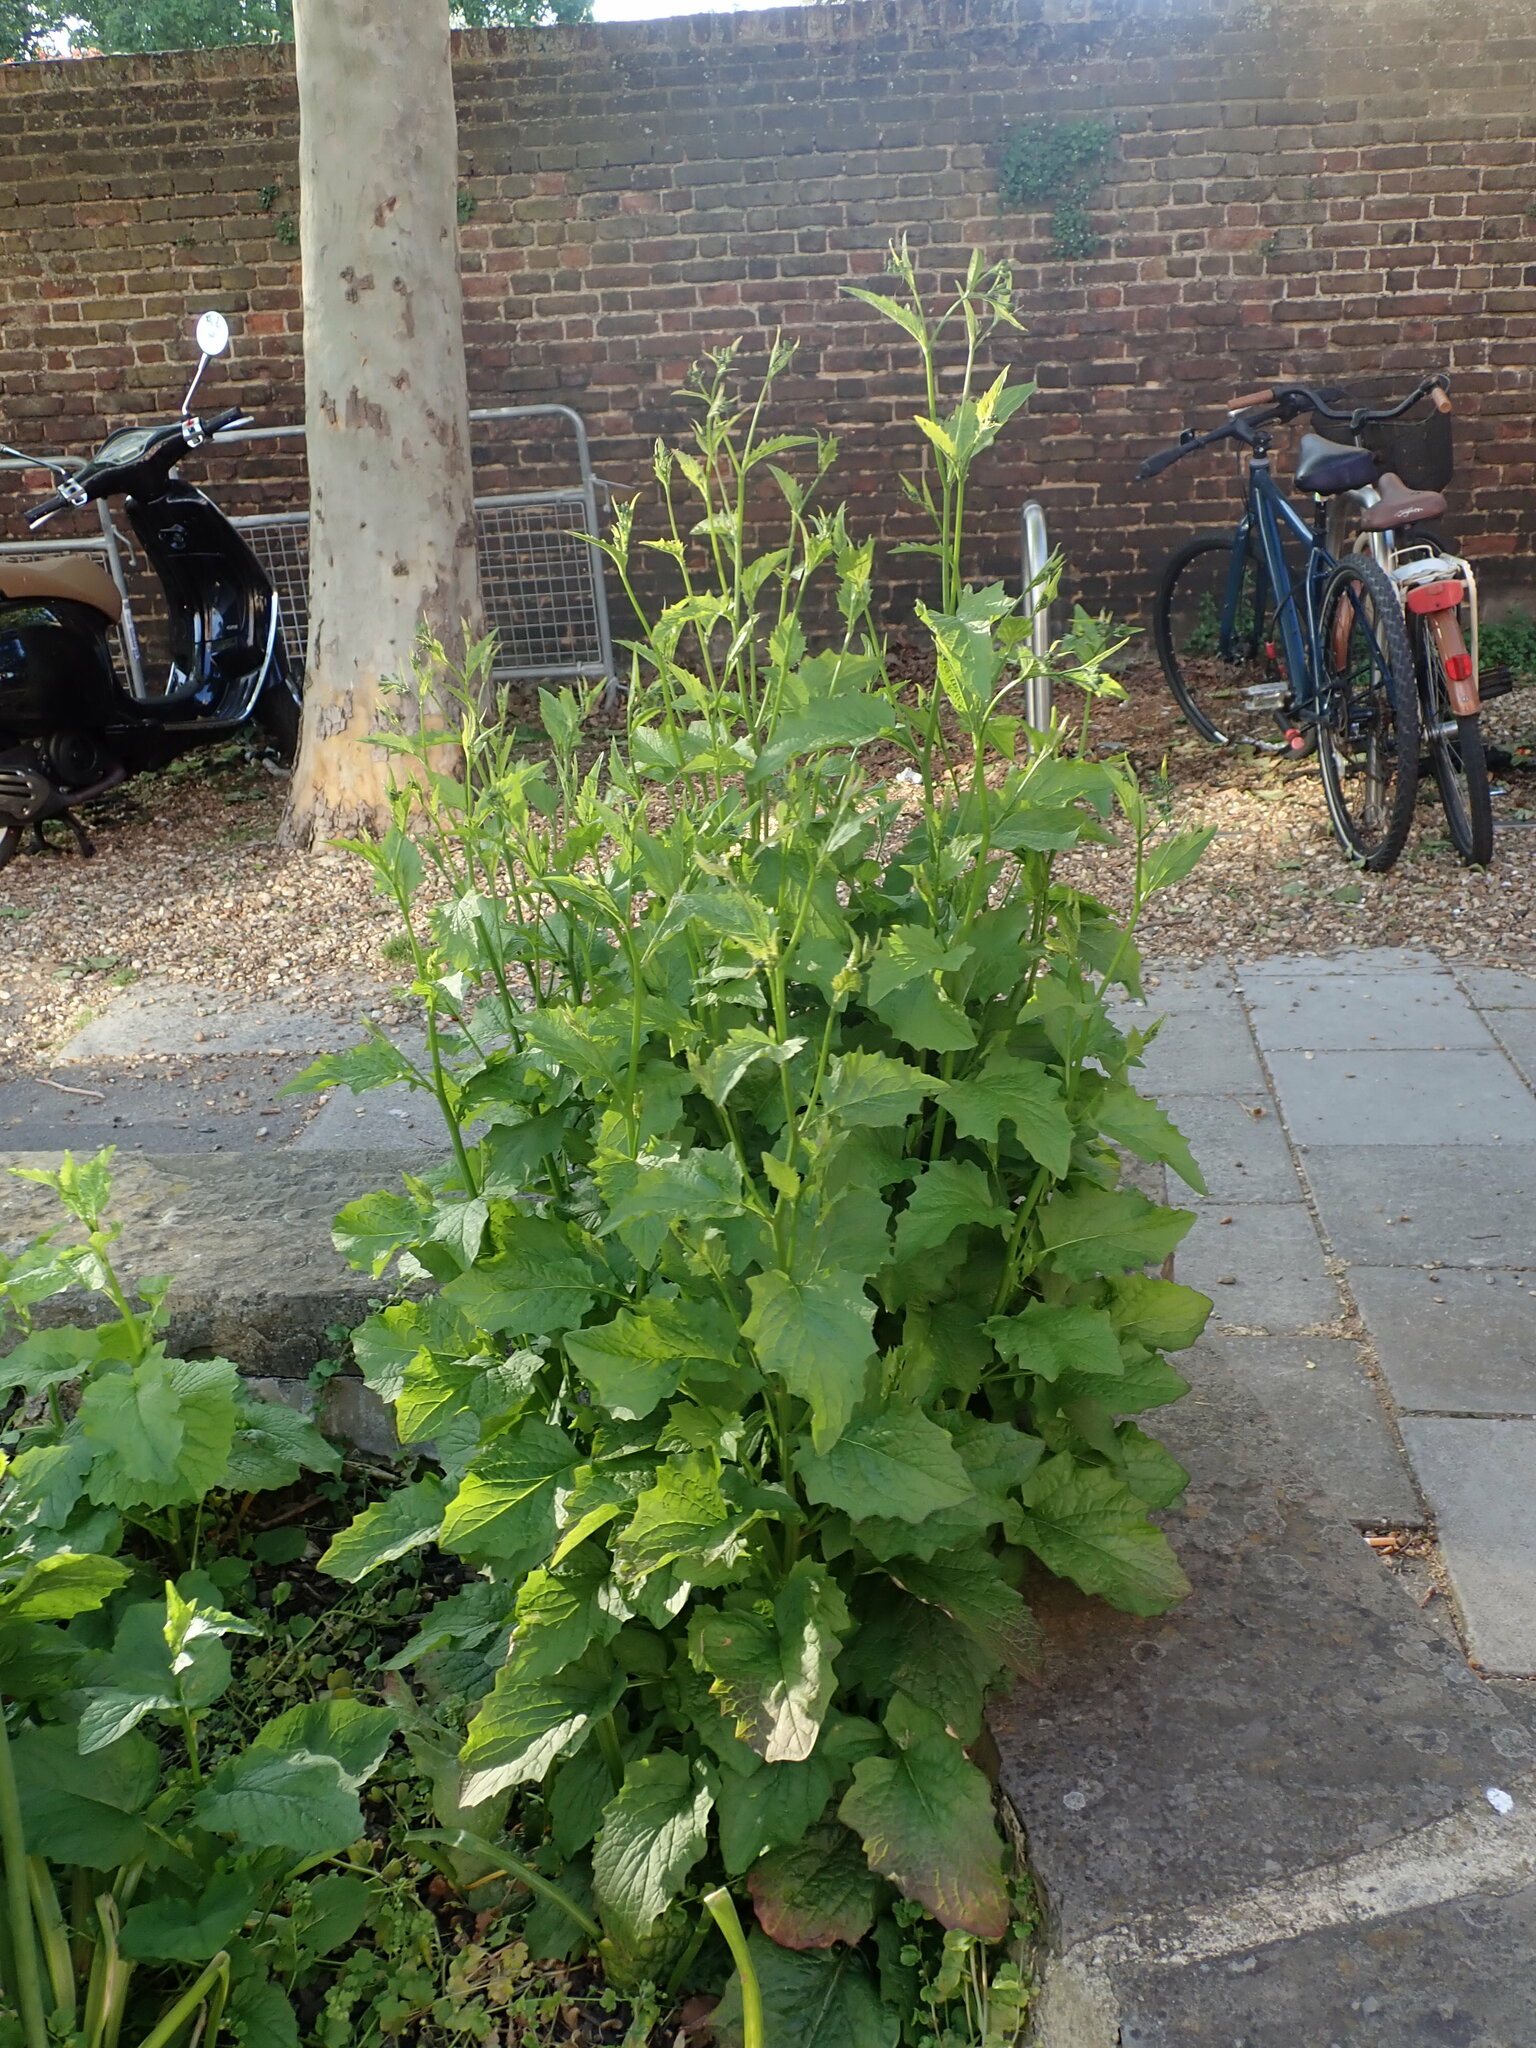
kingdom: Plantae
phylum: Tracheophyta
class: Magnoliopsida
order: Asterales
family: Asteraceae
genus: Lapsana
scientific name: Lapsana communis
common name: Nipplewort
